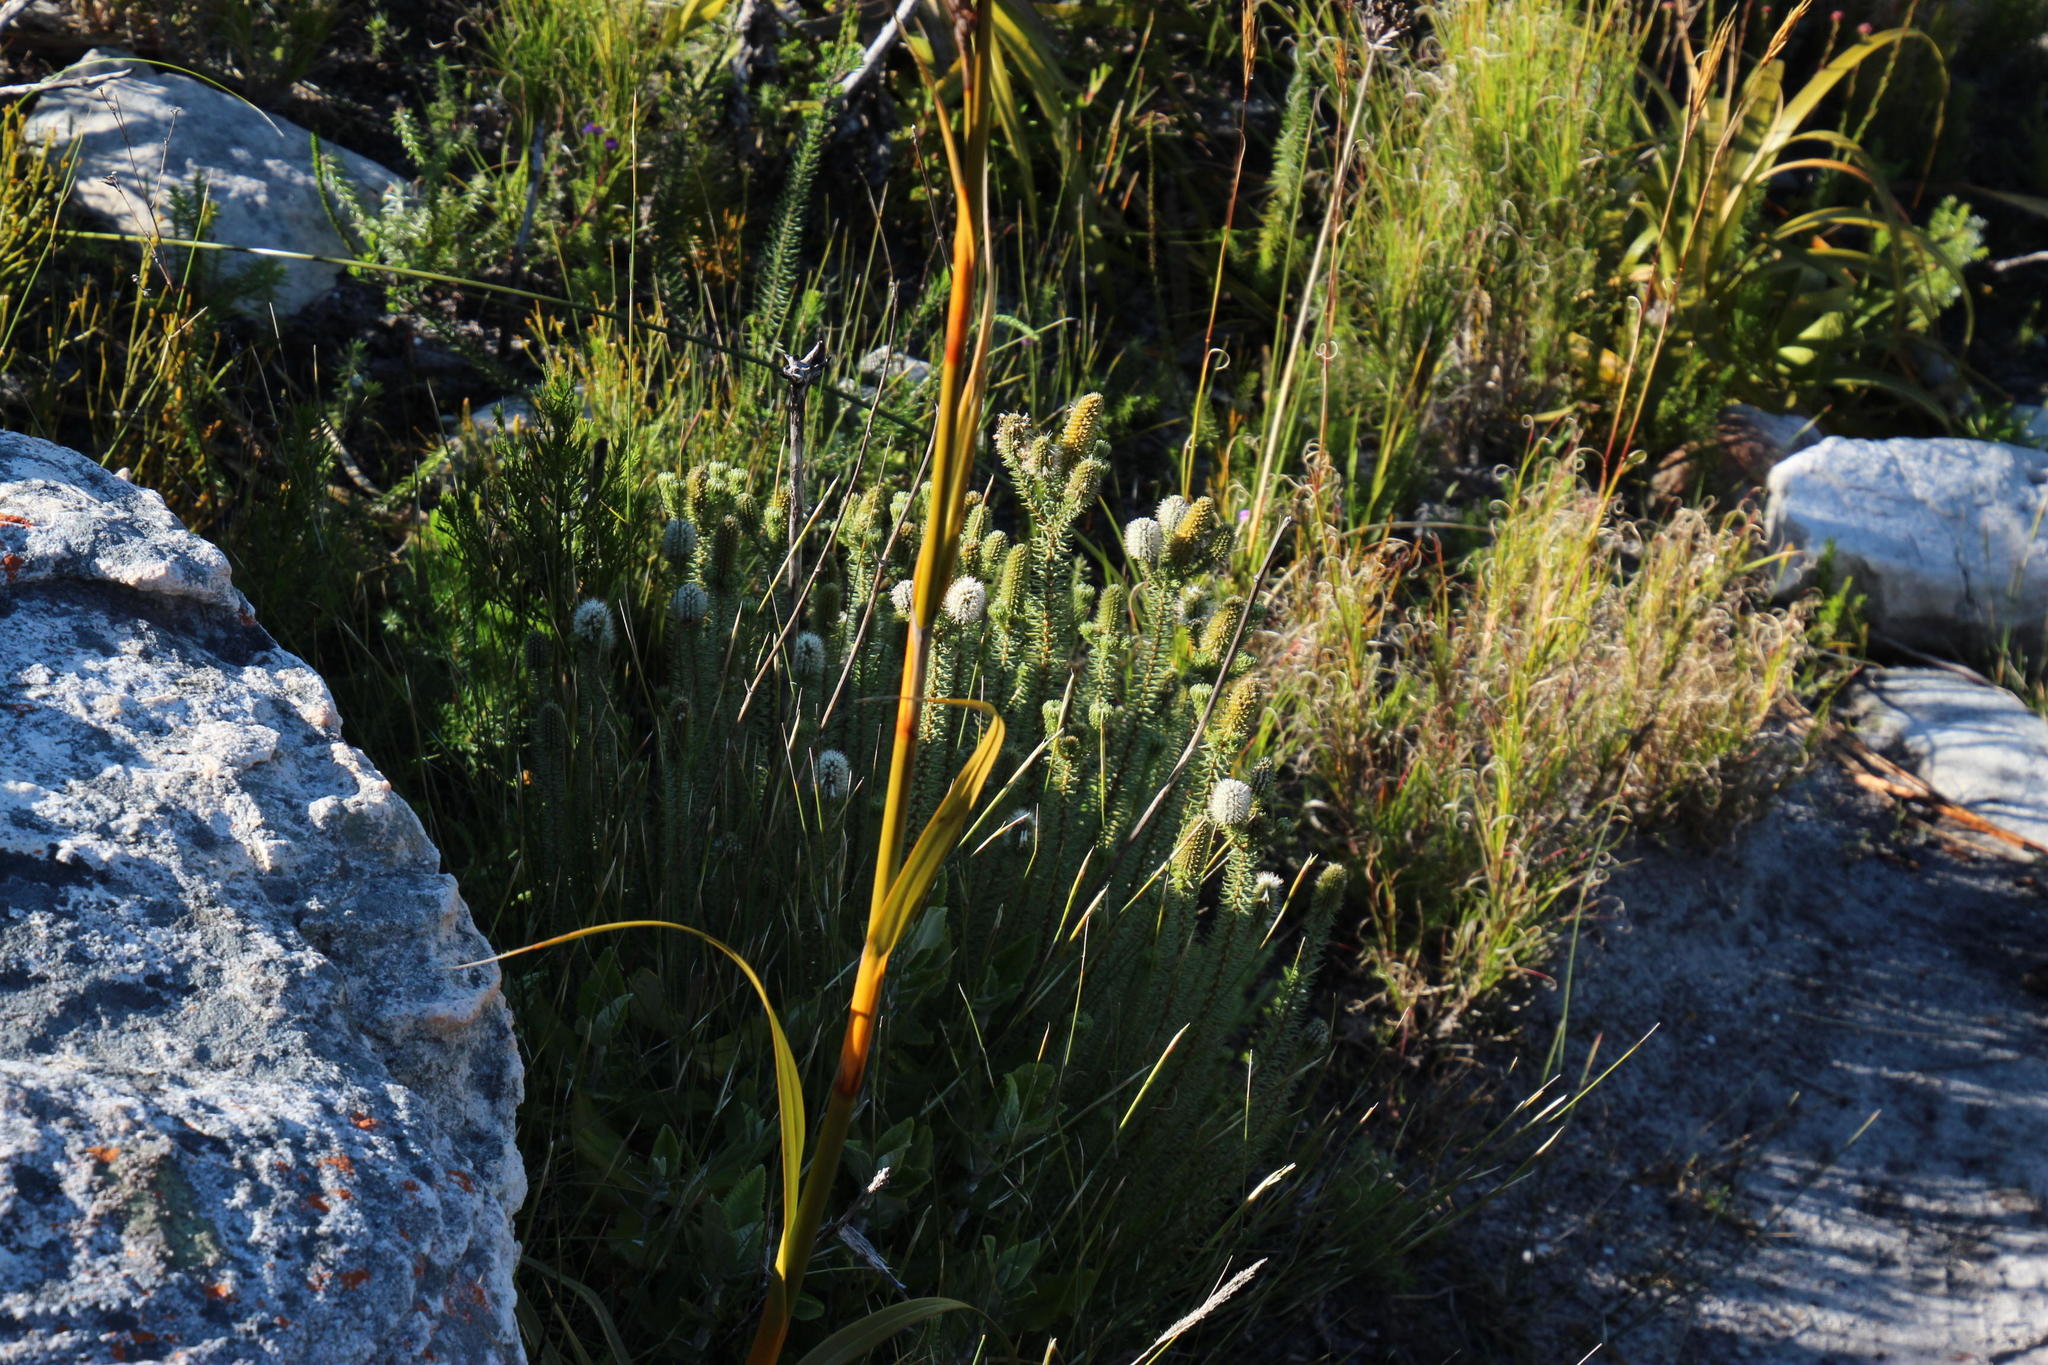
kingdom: Plantae
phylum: Tracheophyta
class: Magnoliopsida
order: Lamiales
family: Stilbaceae
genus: Stilbe
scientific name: Stilbe vestita
